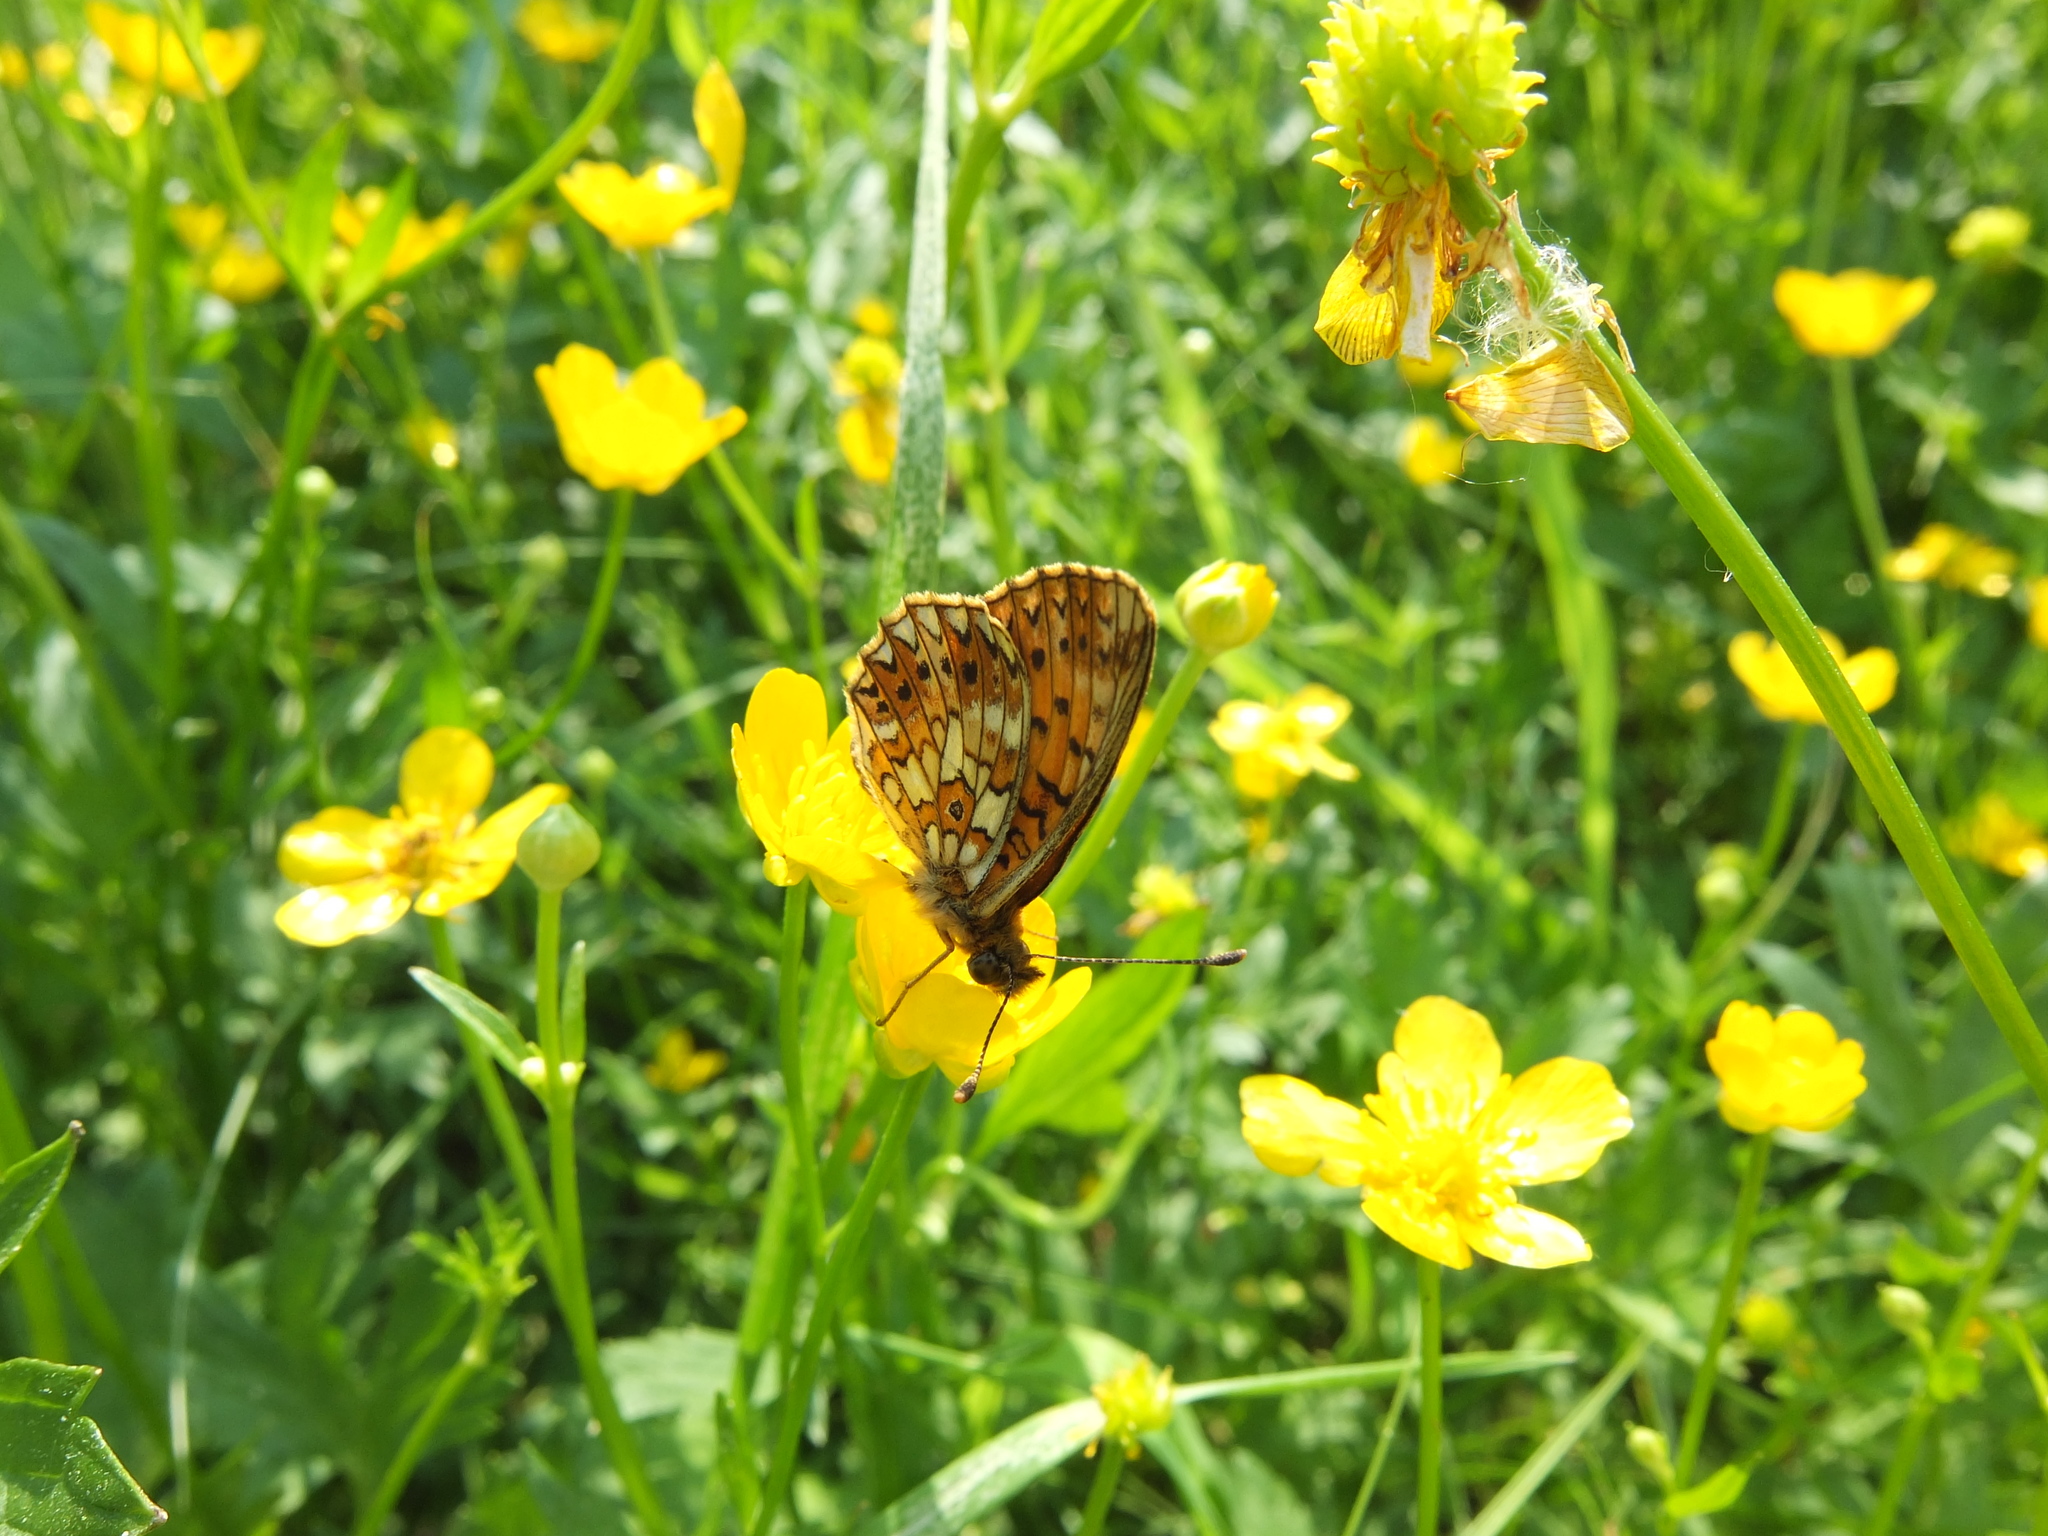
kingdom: Animalia
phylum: Arthropoda
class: Insecta
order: Lepidoptera
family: Nymphalidae
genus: Boloria
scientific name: Boloria selene
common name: Small pearl-bordered fritillary
